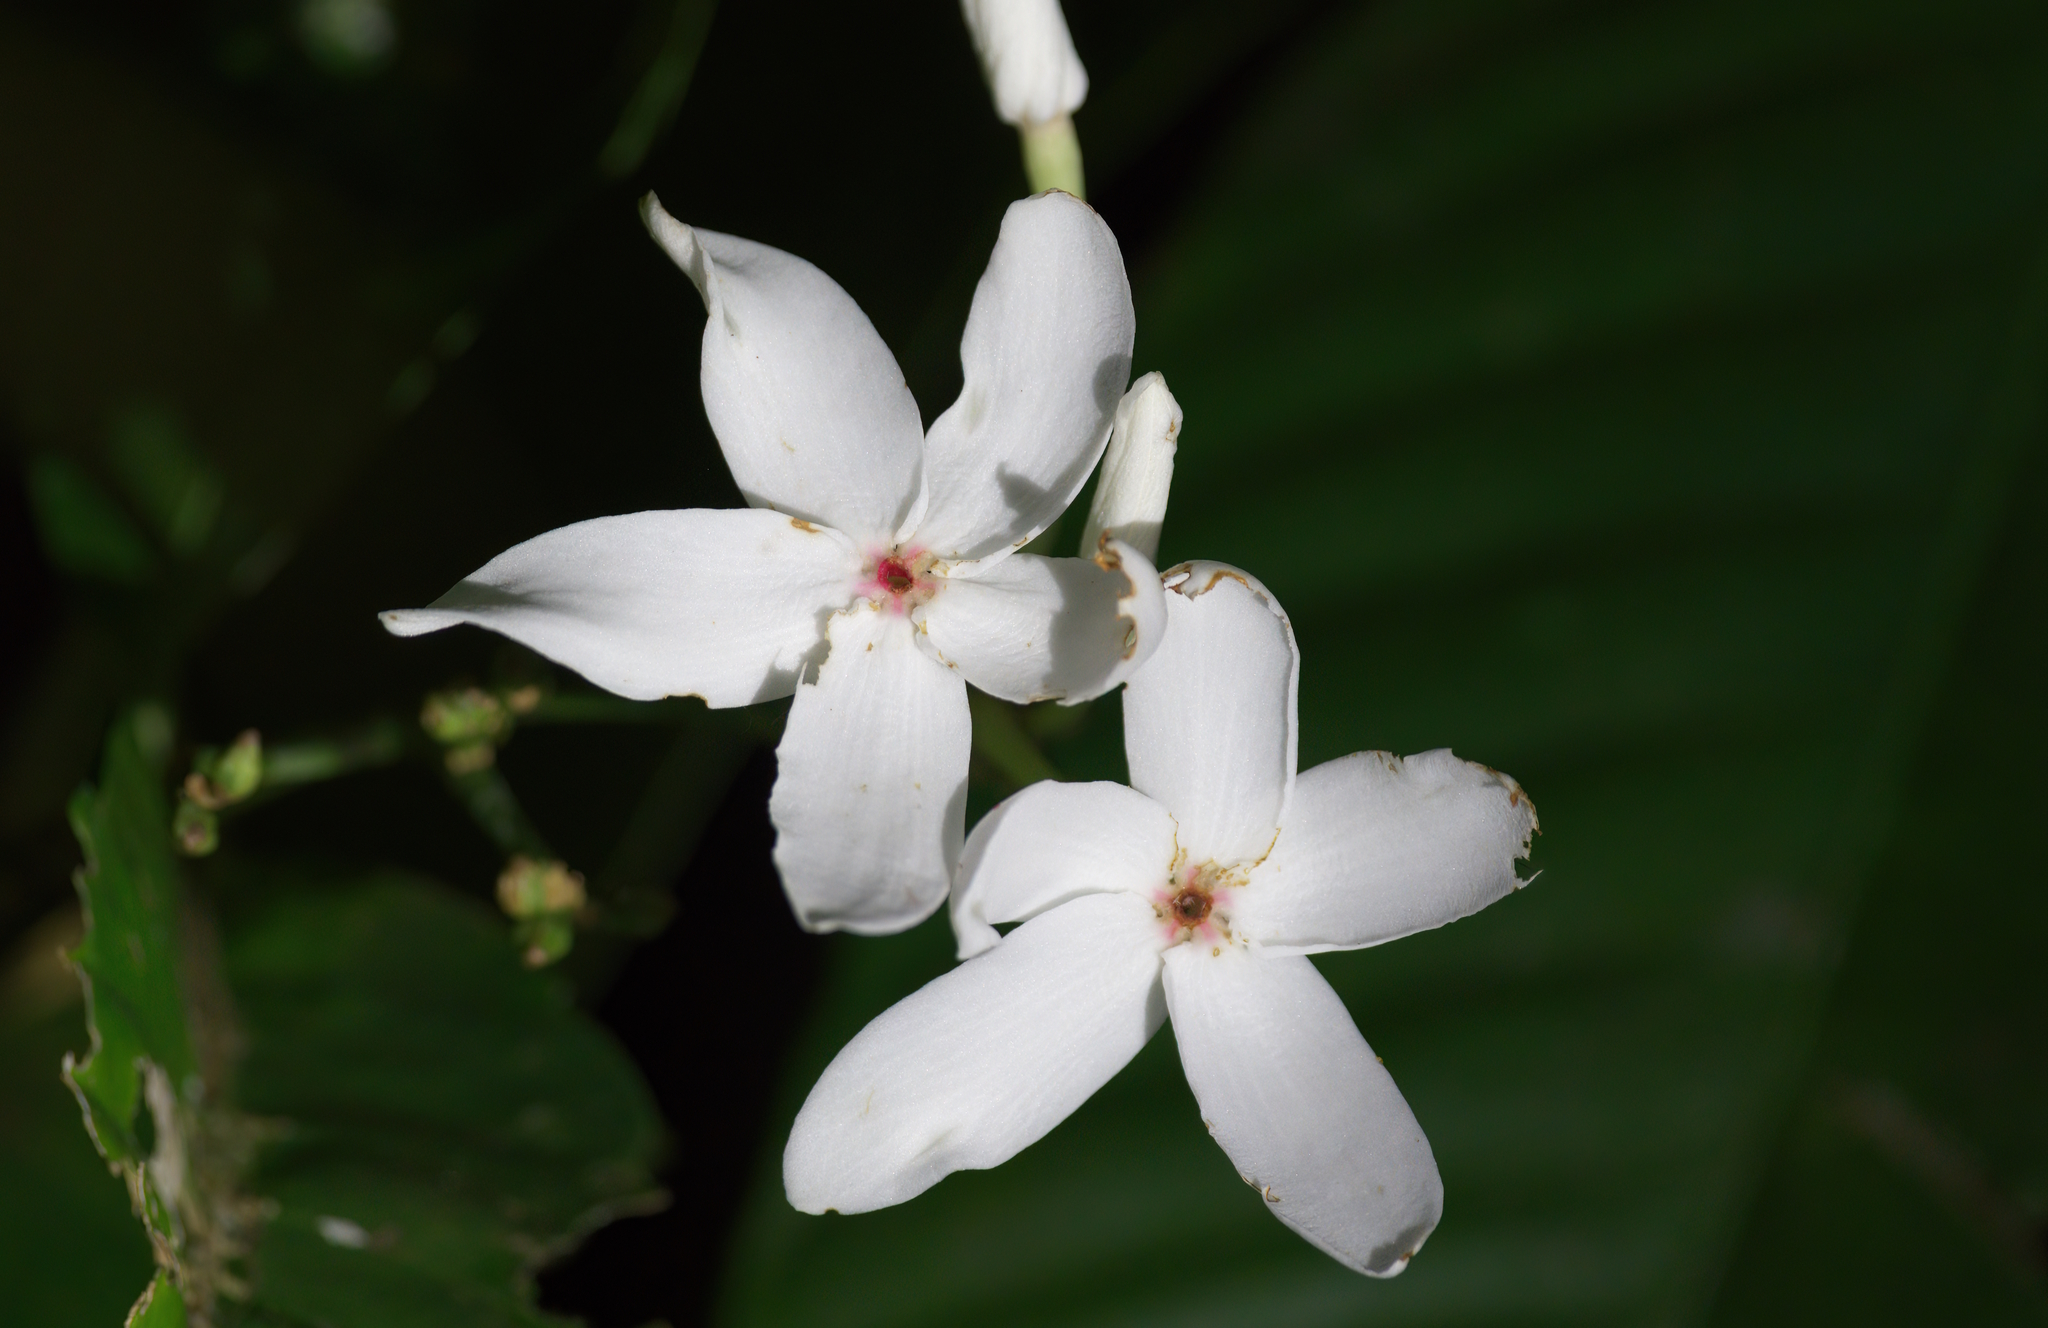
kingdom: Plantae
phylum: Tracheophyta
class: Magnoliopsida
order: Gentianales
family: Apocynaceae
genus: Kopsia
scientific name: Kopsia singapurensis
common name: White kopsia
